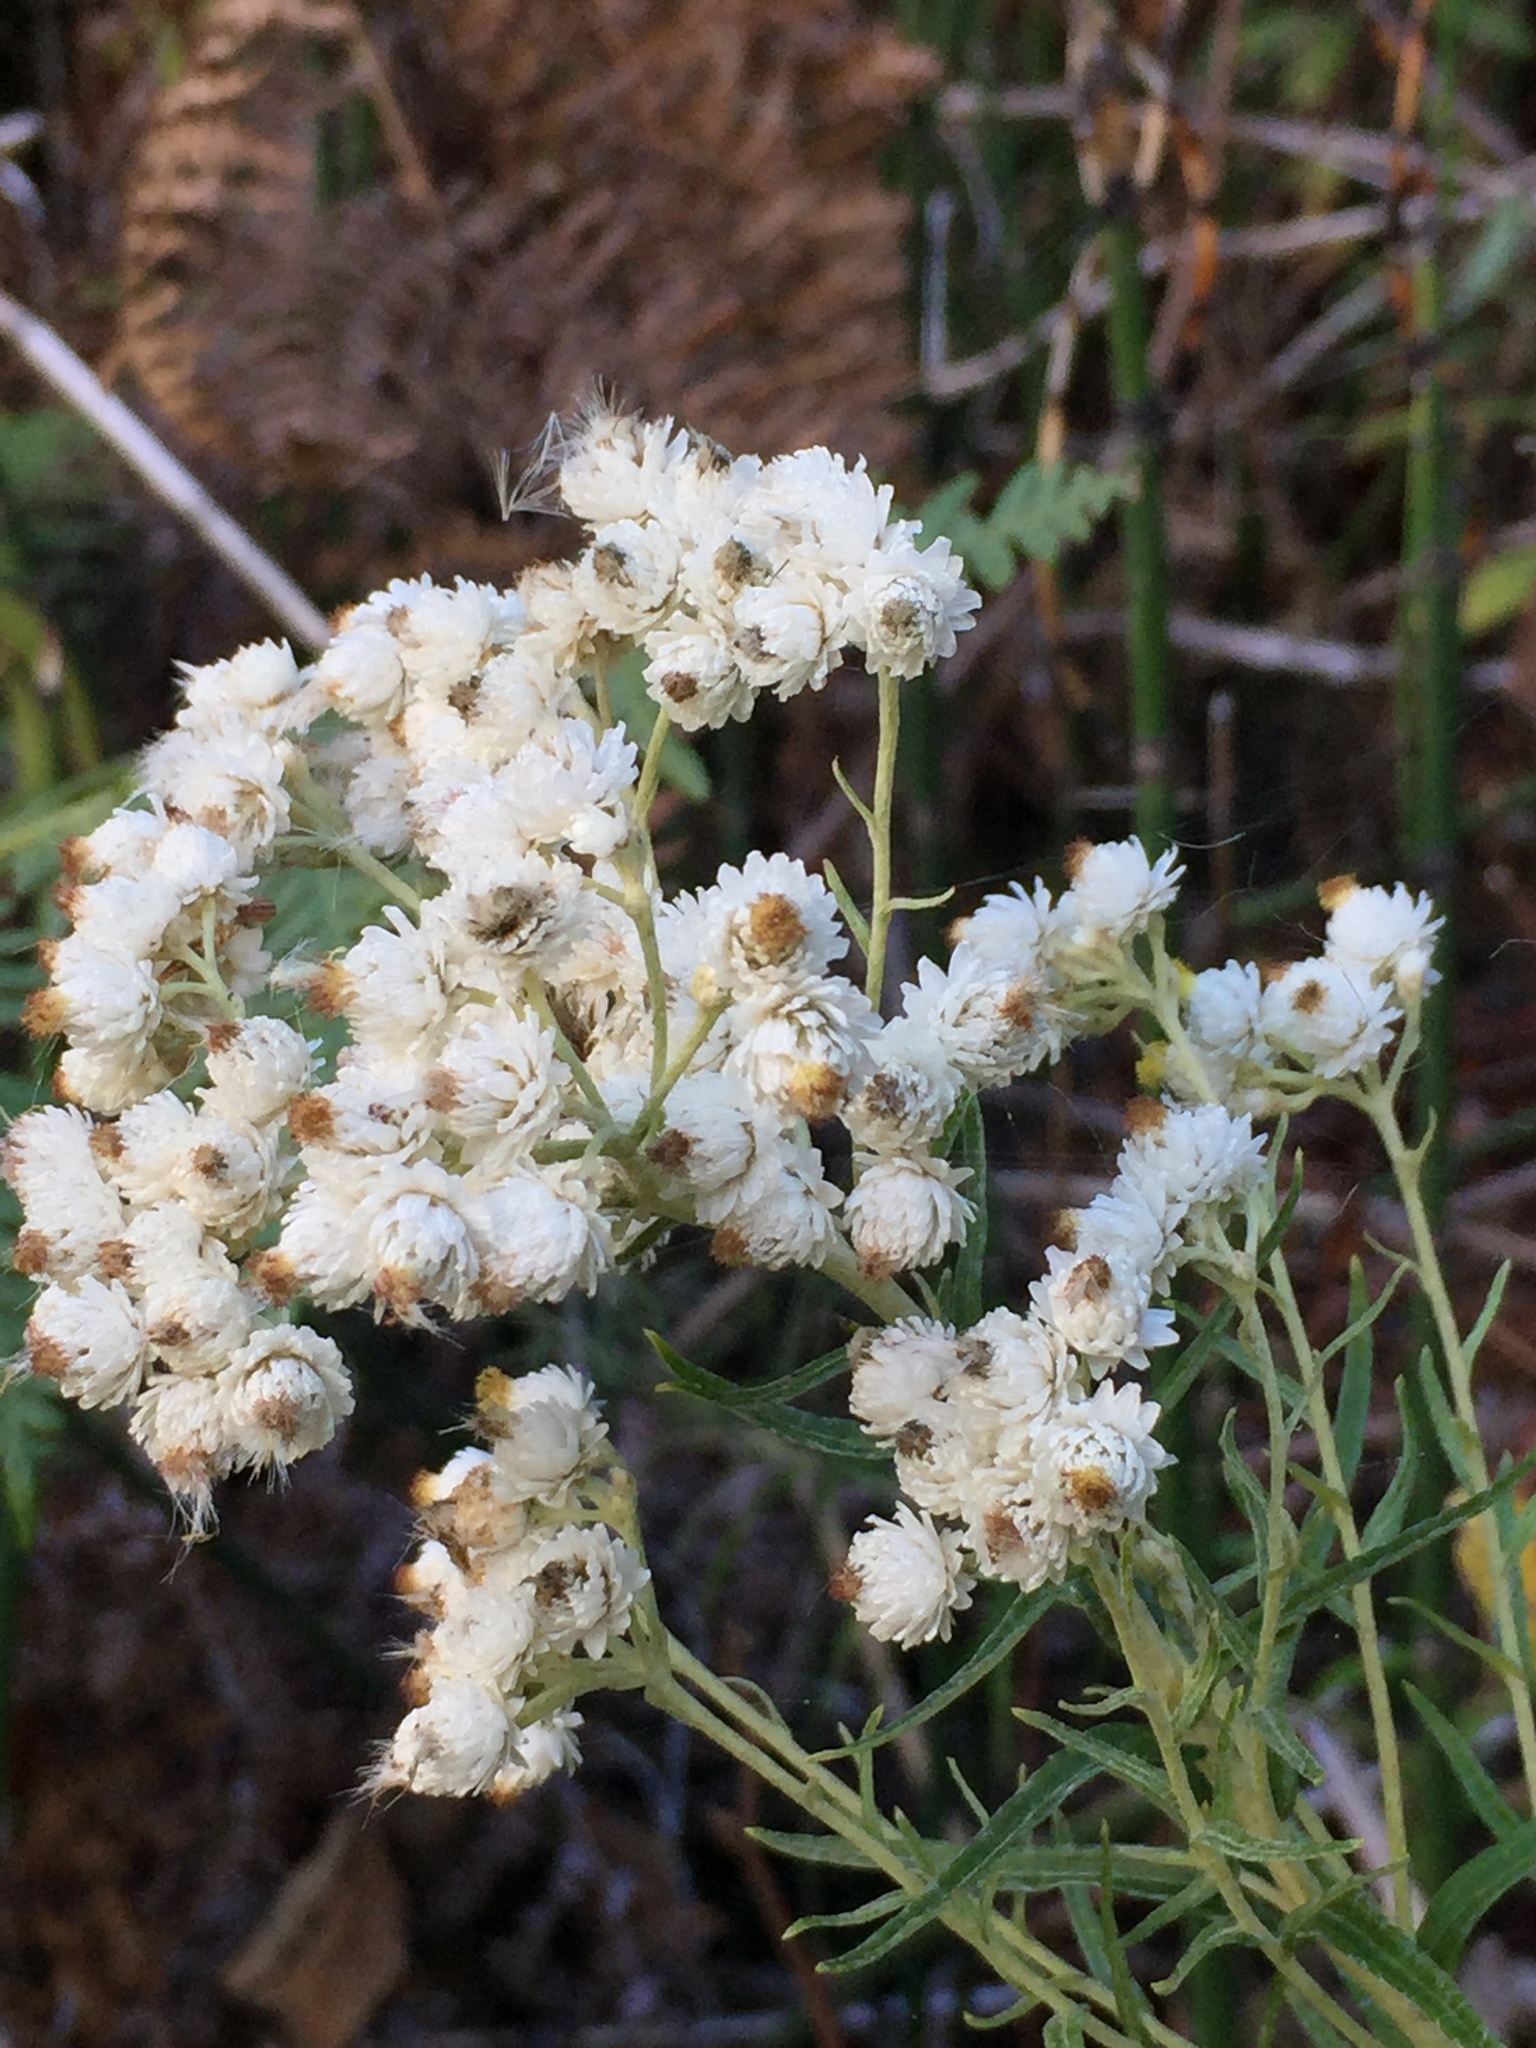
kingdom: Plantae
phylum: Tracheophyta
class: Magnoliopsida
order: Asterales
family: Asteraceae
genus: Anaphalis
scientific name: Anaphalis margaritacea
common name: Pearly everlasting
